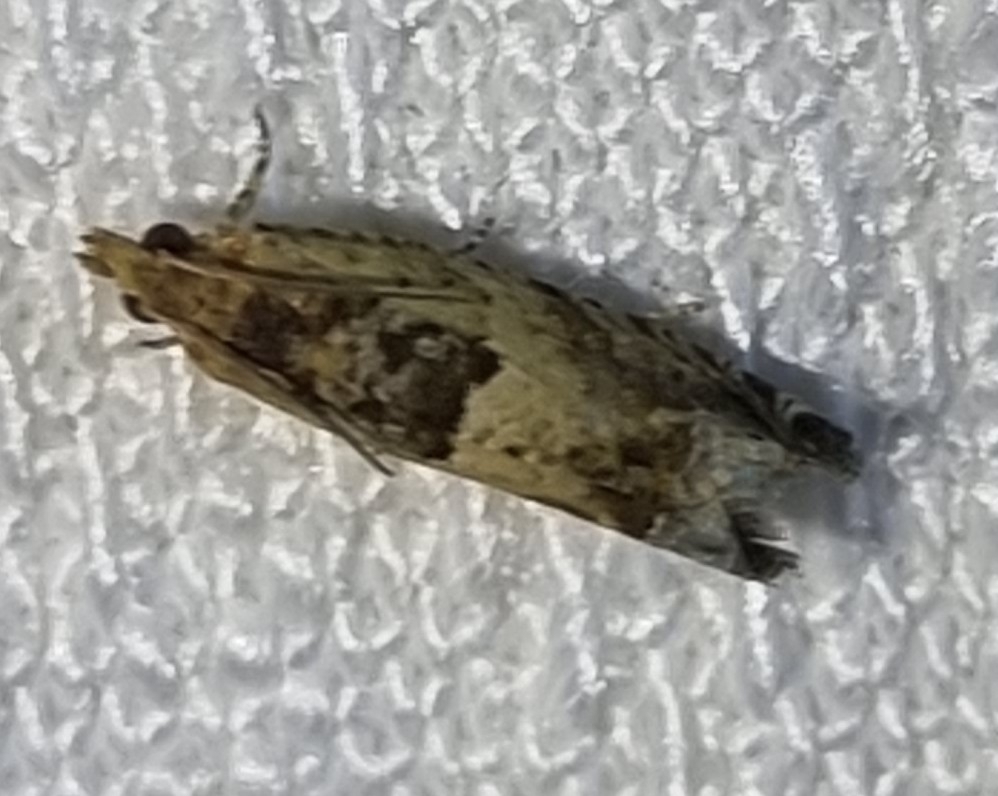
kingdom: Animalia
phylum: Arthropoda
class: Insecta
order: Lepidoptera
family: Tortricidae
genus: Crocidosema
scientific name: Crocidosema plebejana
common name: Southern bell
